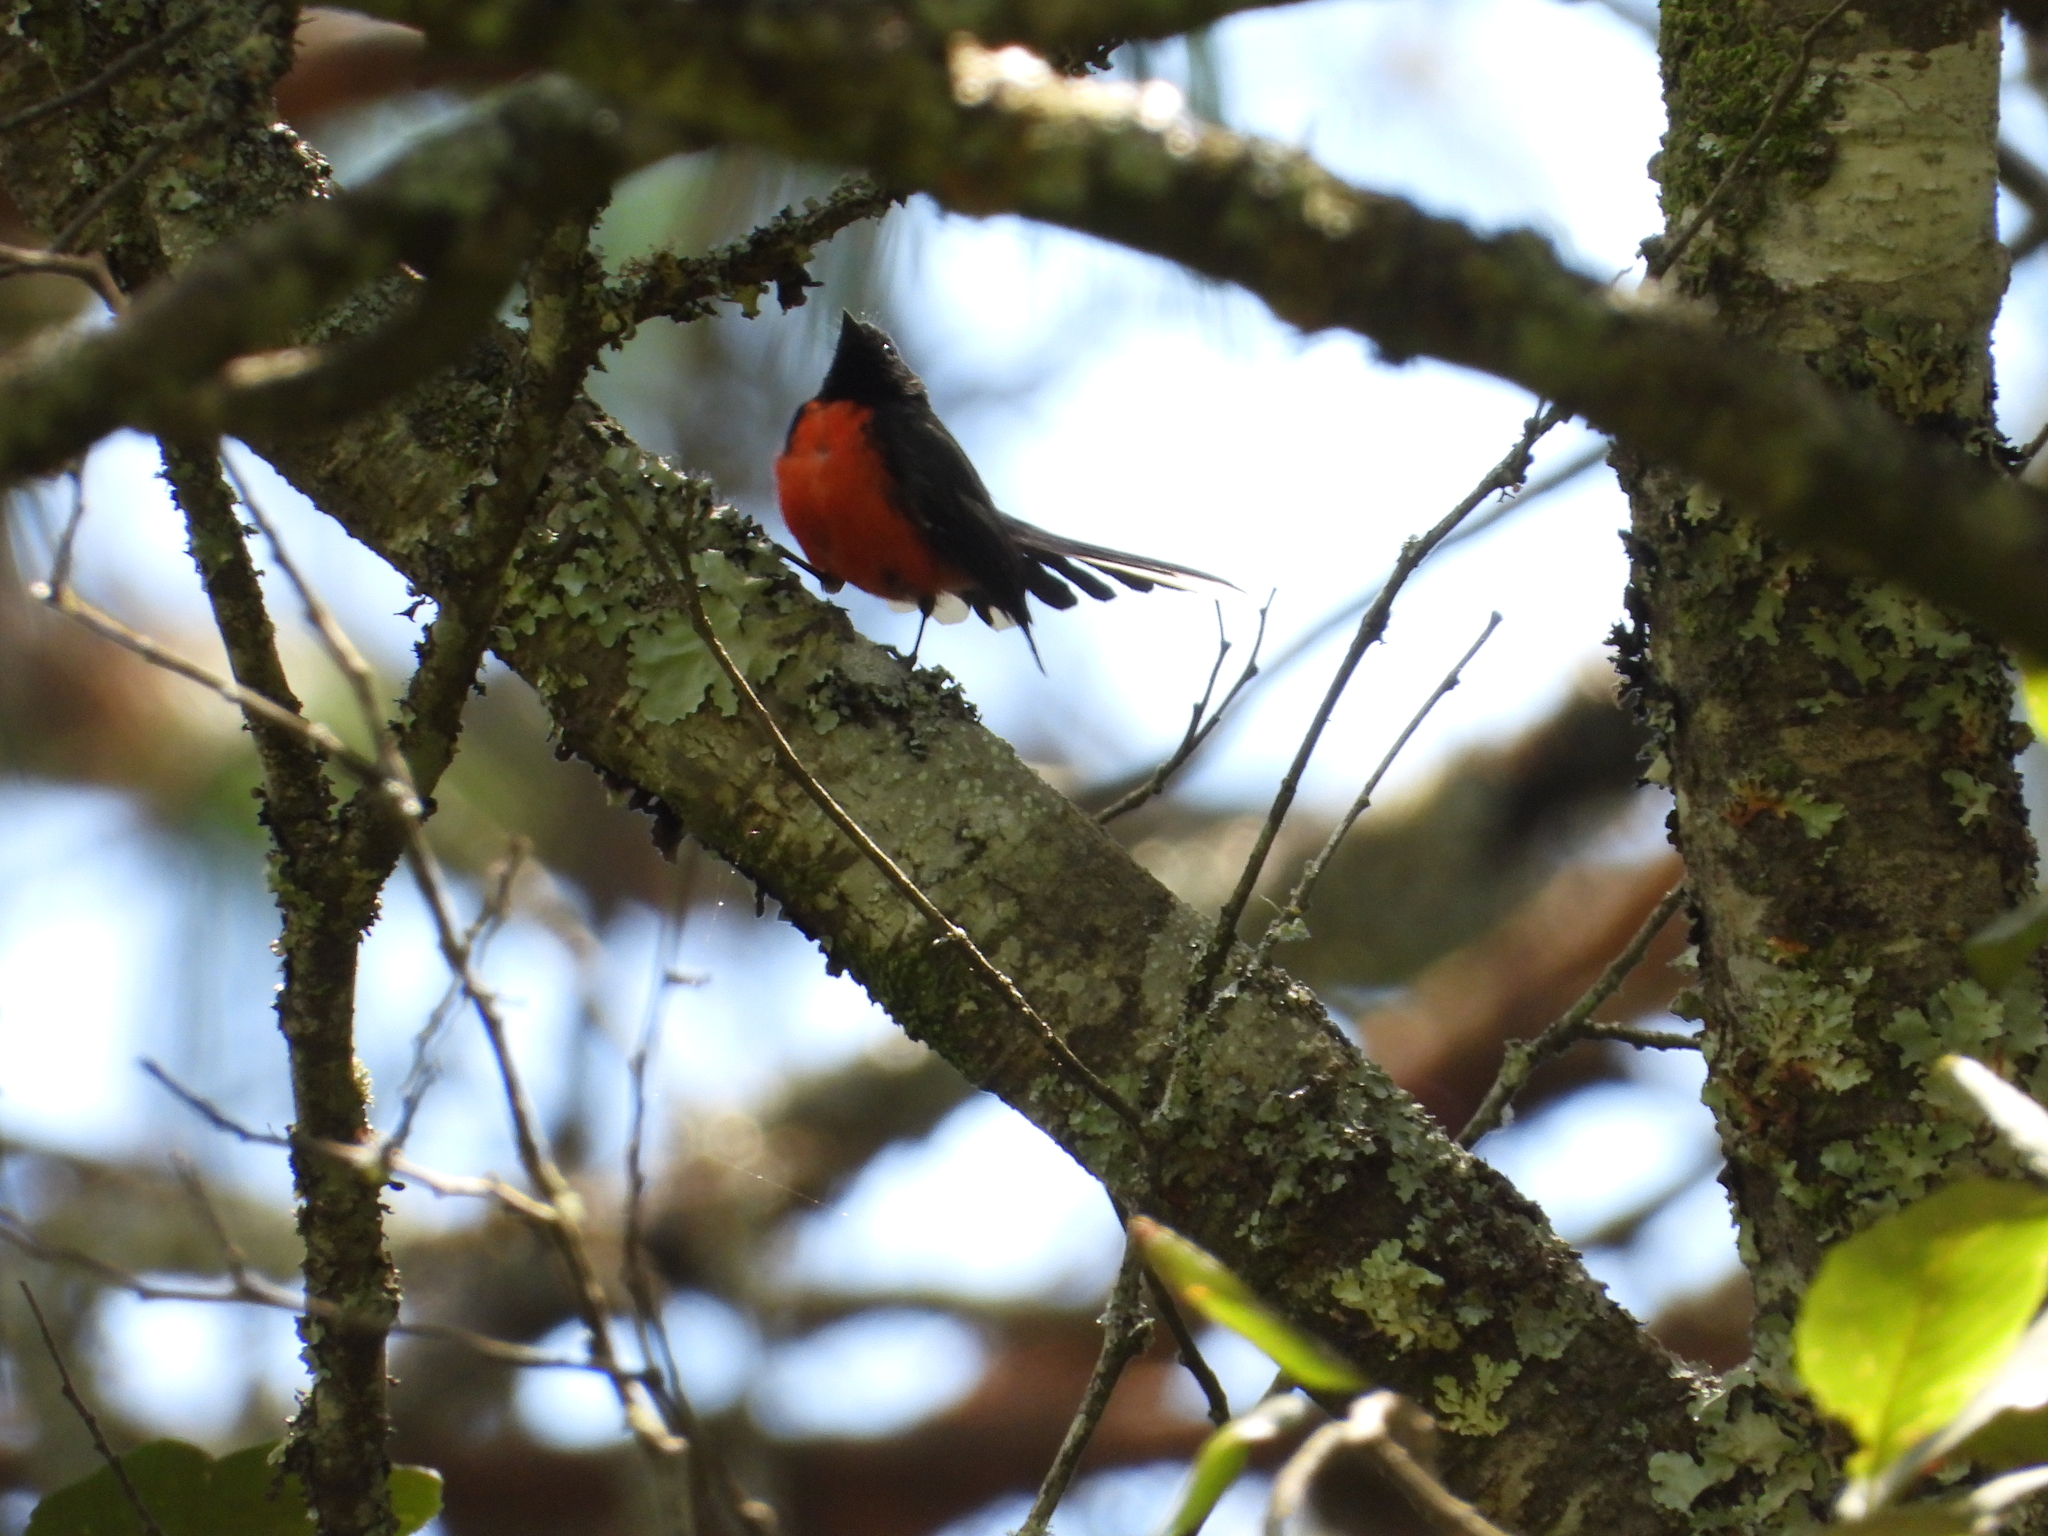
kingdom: Animalia
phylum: Chordata
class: Aves
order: Passeriformes
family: Parulidae
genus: Myioborus
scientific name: Myioborus miniatus
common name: Slate-throated redstart
